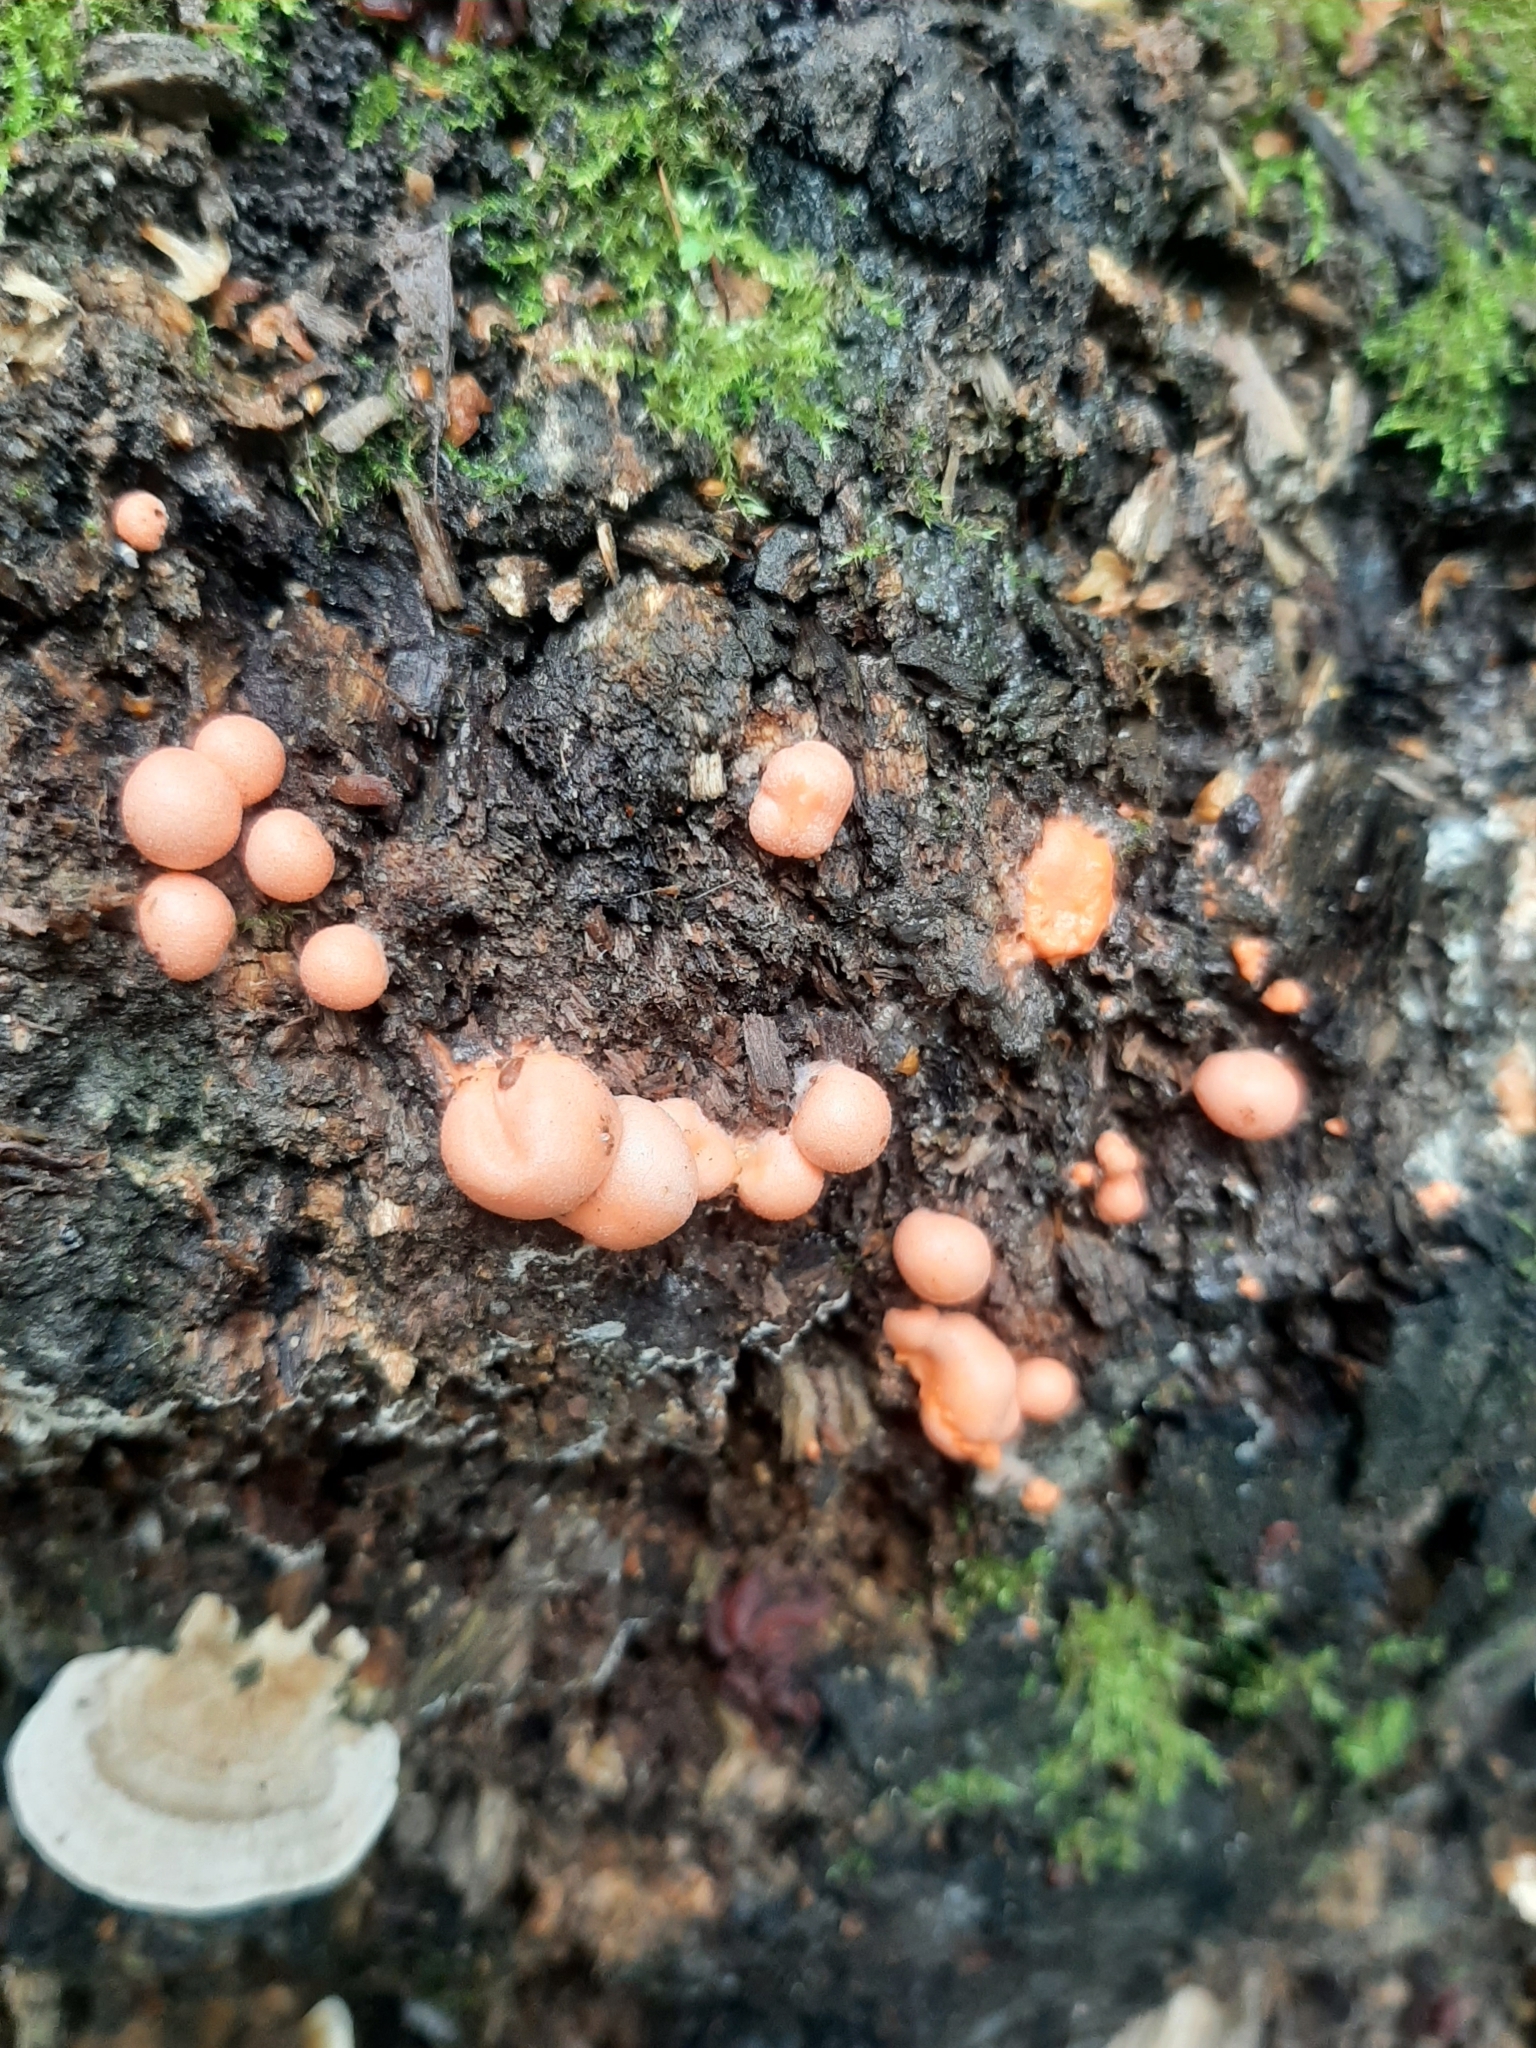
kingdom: Protozoa
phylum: Mycetozoa
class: Myxomycetes
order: Cribrariales
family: Tubiferaceae
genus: Lycogala
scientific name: Lycogala epidendrum
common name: Wolf's milk
